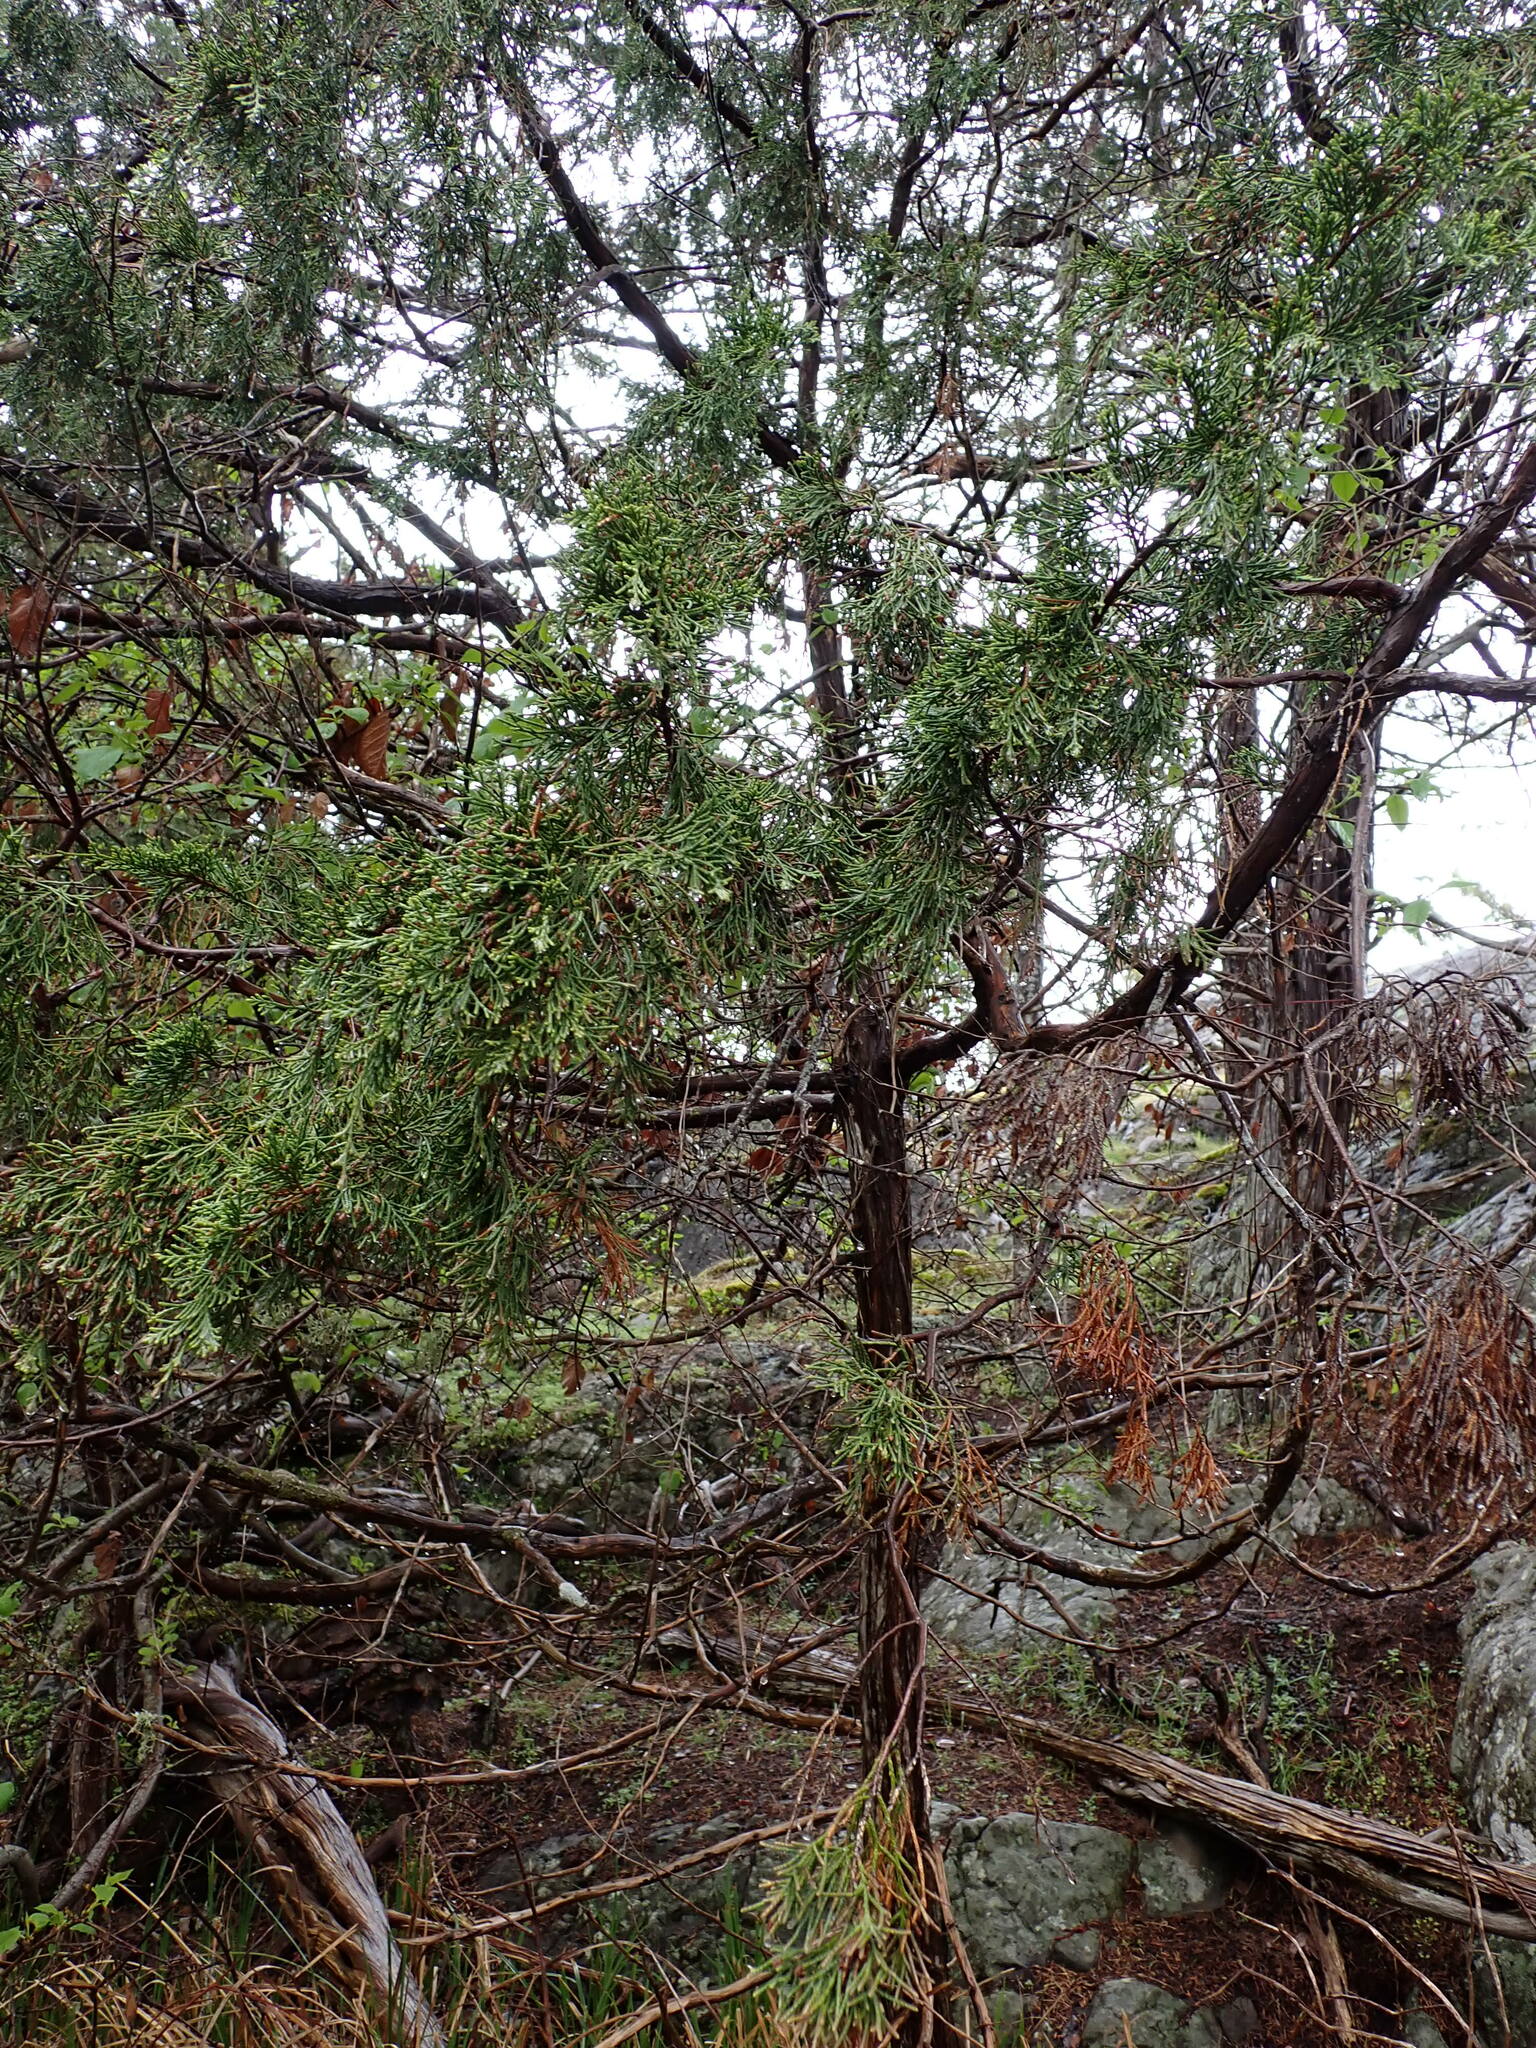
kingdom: Plantae
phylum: Tracheophyta
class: Pinopsida
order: Pinales
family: Cupressaceae
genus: Juniperus
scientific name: Juniperus scopulorum
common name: Rocky mountain juniper
